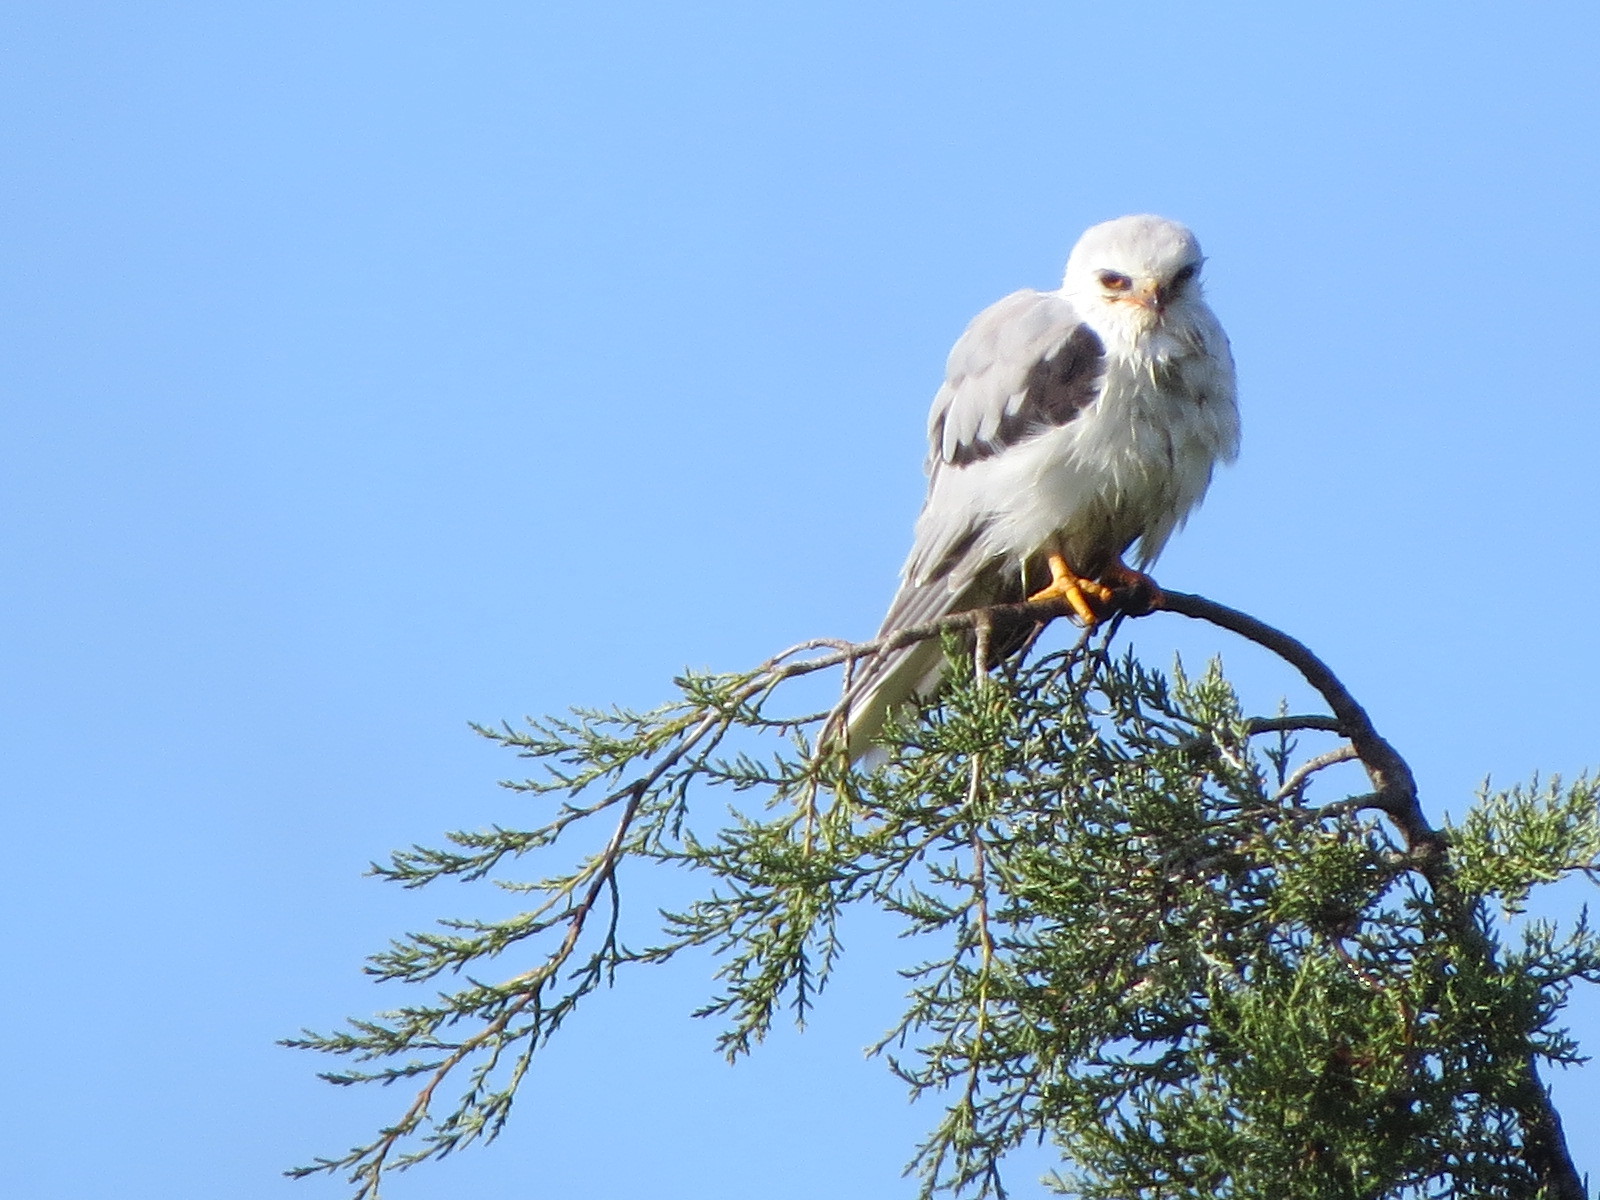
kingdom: Animalia
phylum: Chordata
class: Aves
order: Accipitriformes
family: Accipitridae
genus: Elanus
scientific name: Elanus leucurus
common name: White-tailed kite
